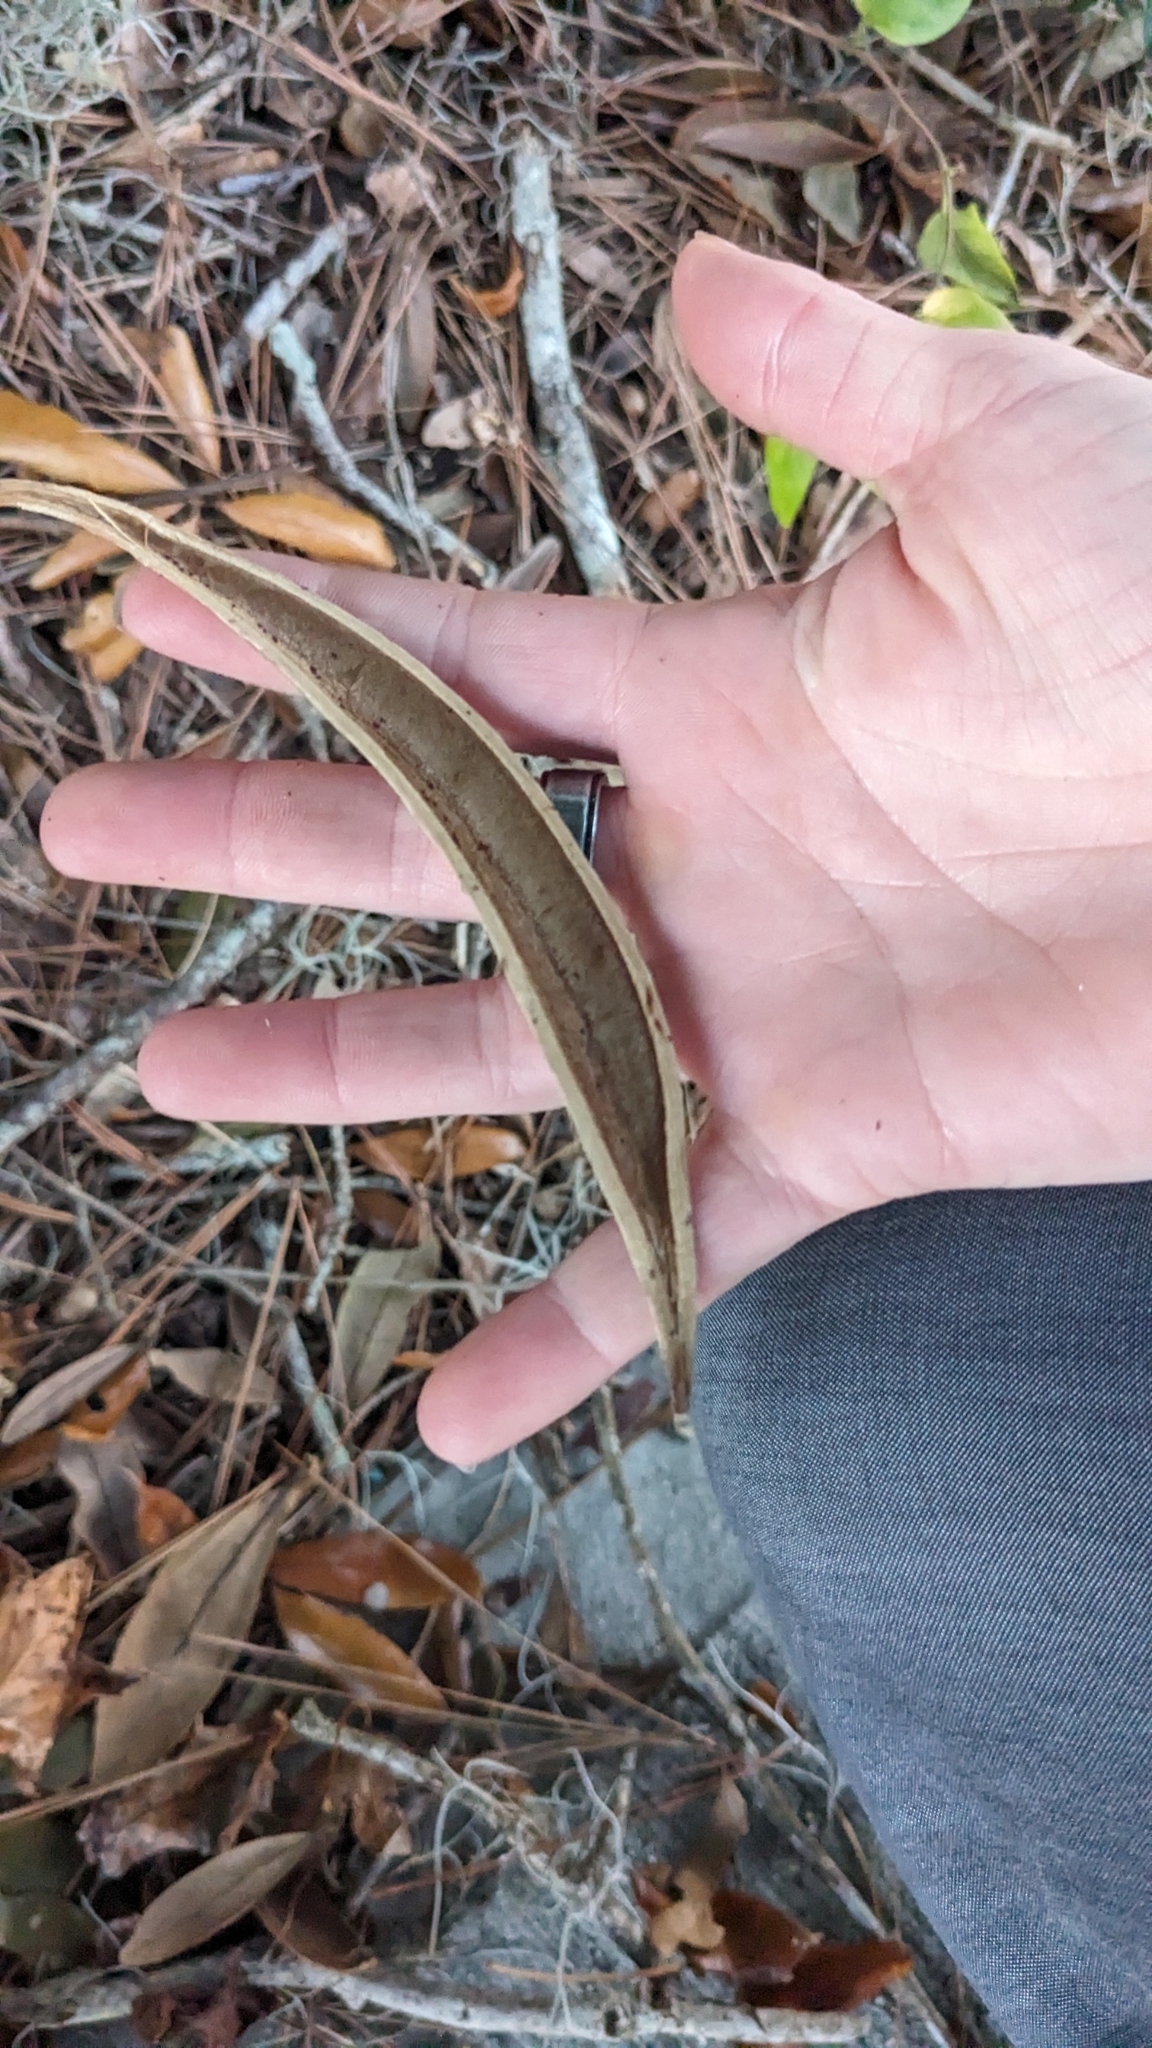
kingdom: Plantae
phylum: Tracheophyta
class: Magnoliopsida
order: Lamiales
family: Bignoniaceae
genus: Campsis
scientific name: Campsis radicans
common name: Trumpet-creeper
